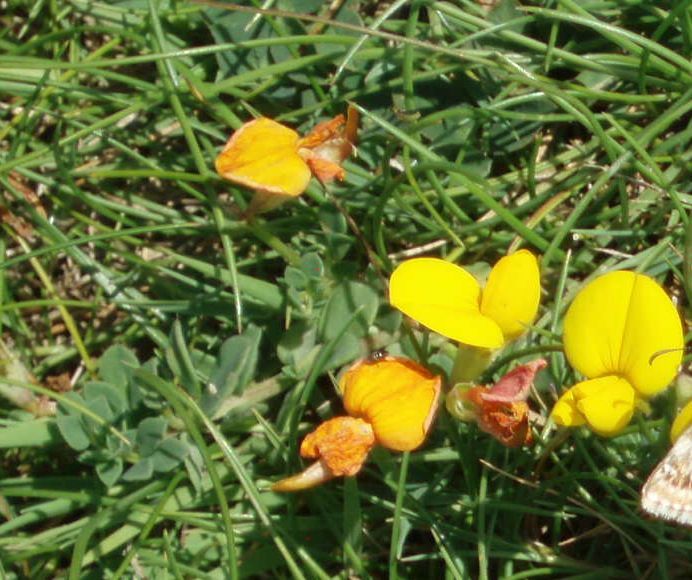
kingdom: Plantae
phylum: Tracheophyta
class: Magnoliopsida
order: Fabales
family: Fabaceae
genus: Lotus
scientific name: Lotus corniculatus
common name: Common bird's-foot-trefoil
